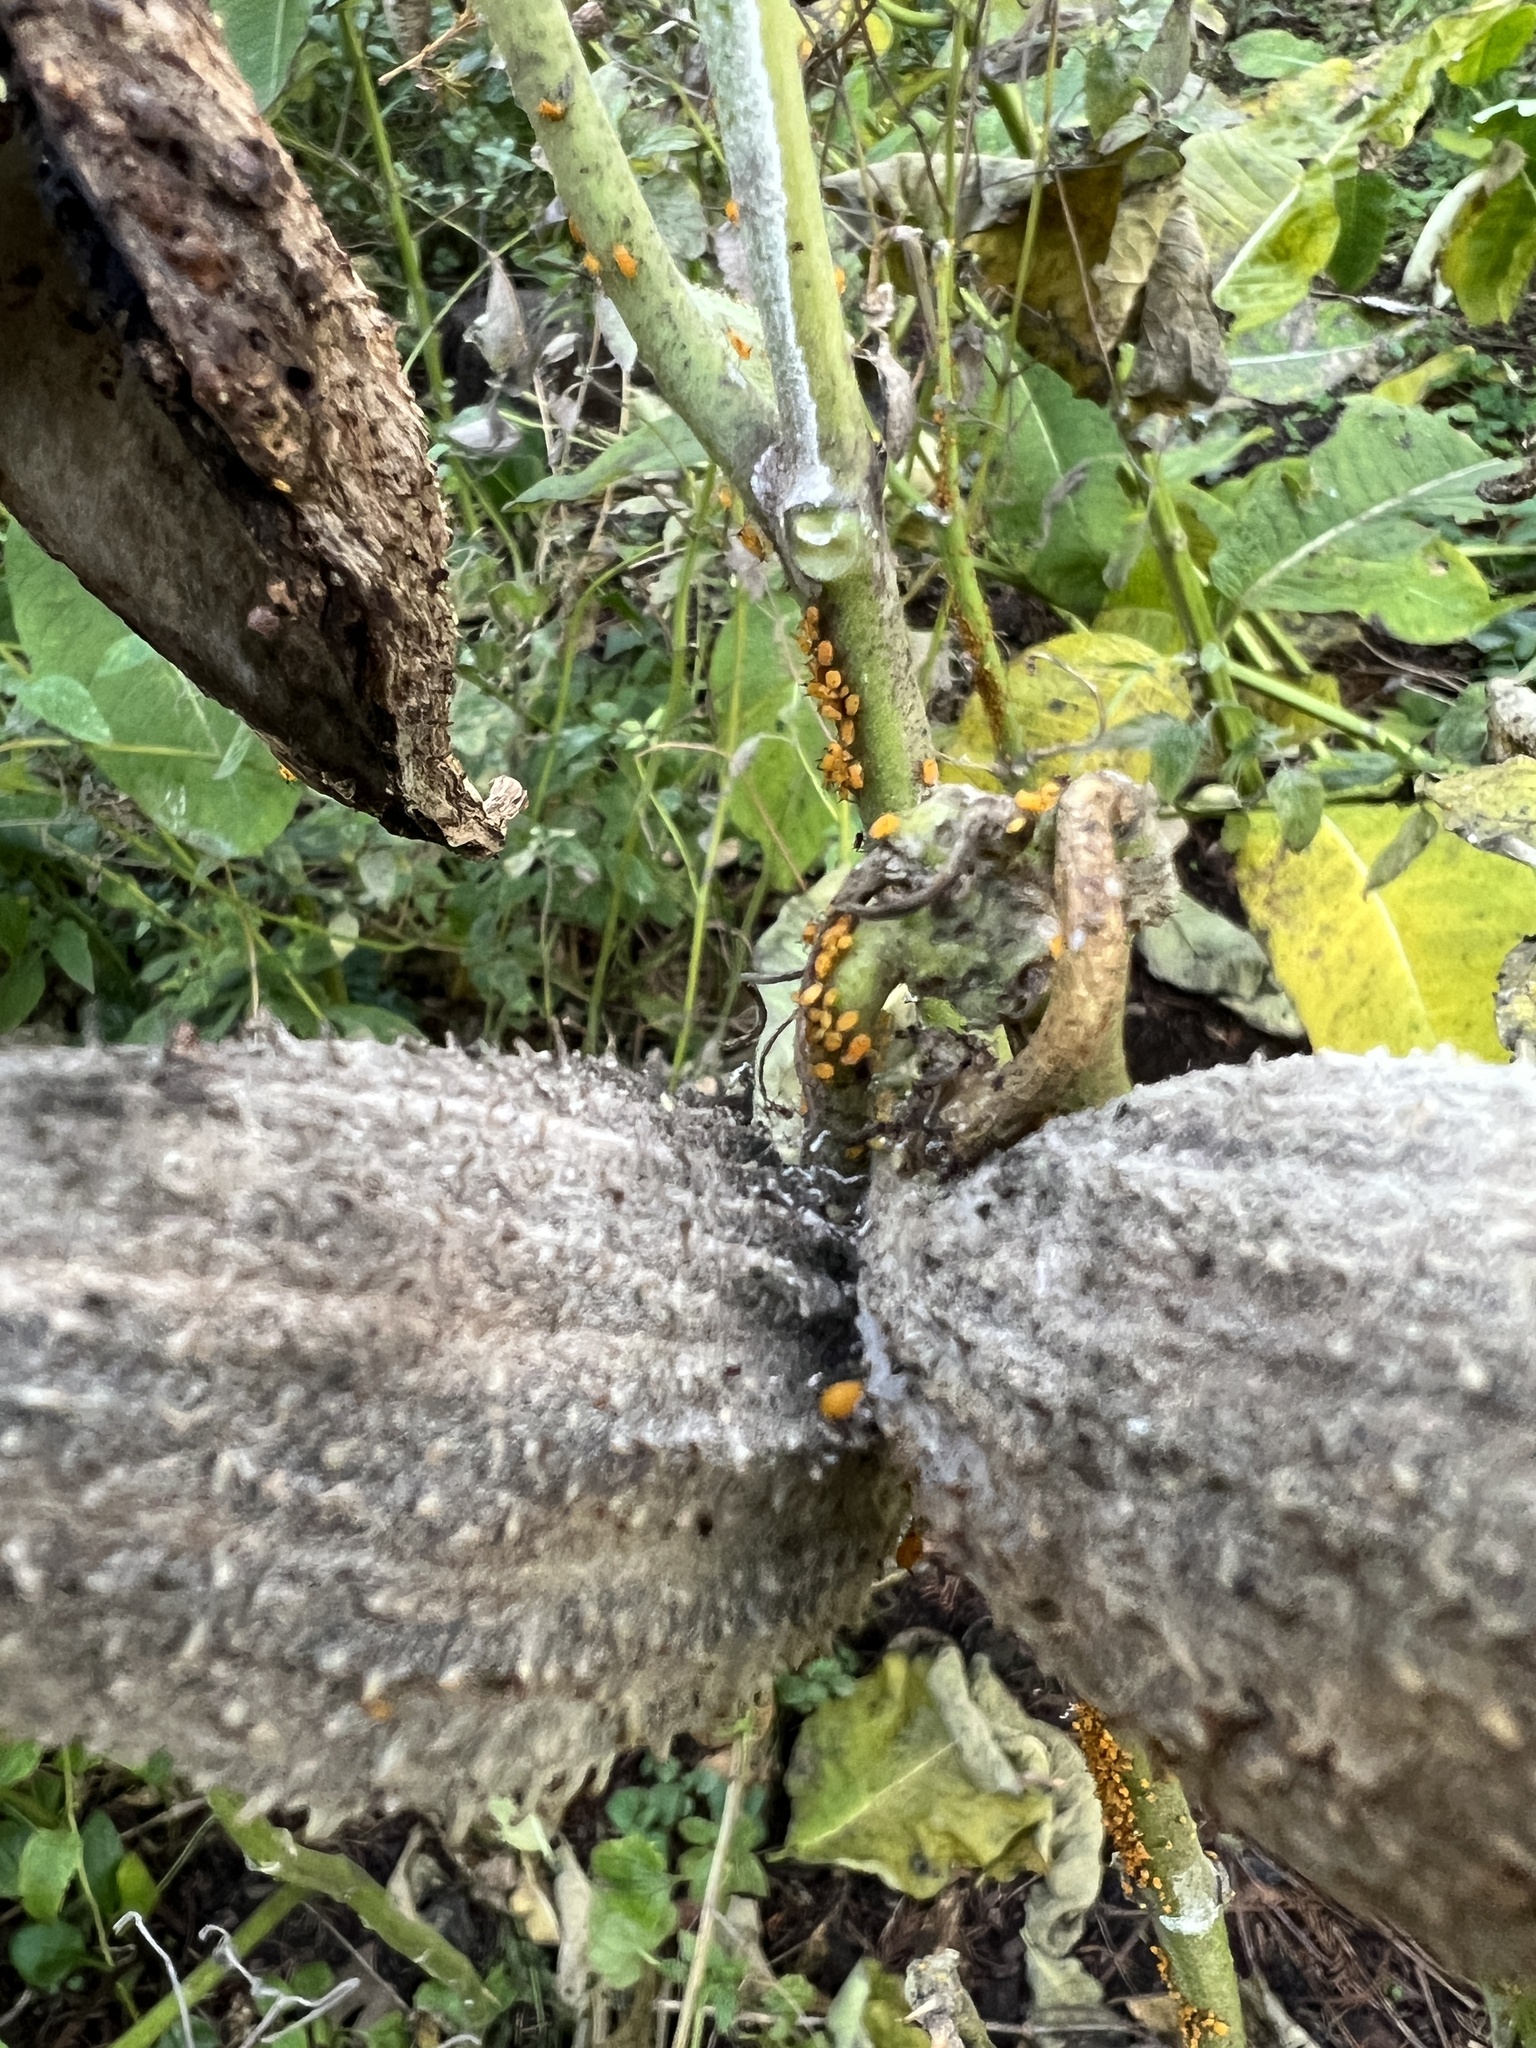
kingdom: Animalia
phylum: Arthropoda
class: Insecta
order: Hemiptera
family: Aphididae
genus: Aphis
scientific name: Aphis nerii
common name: Oleander aphid
